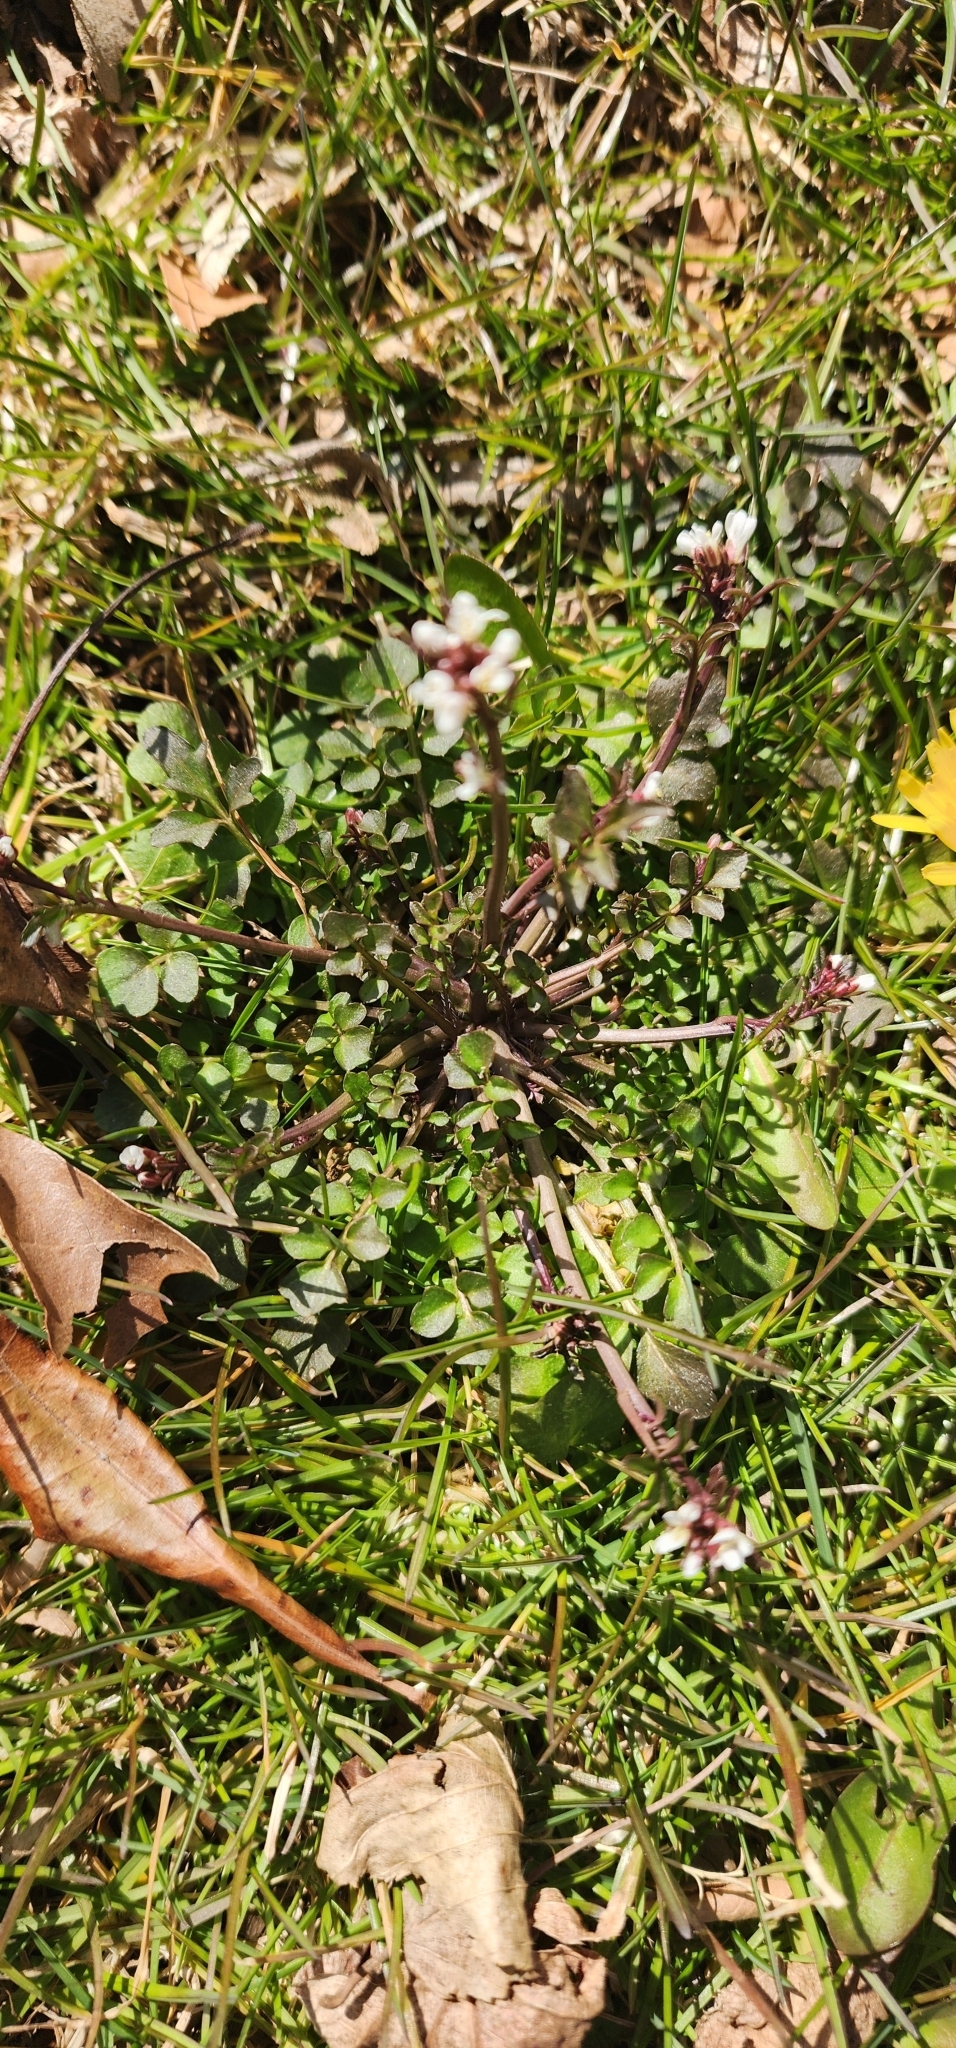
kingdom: Plantae
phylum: Tracheophyta
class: Magnoliopsida
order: Brassicales
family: Brassicaceae
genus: Cardamine
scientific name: Cardamine hirsuta
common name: Hairy bittercress
